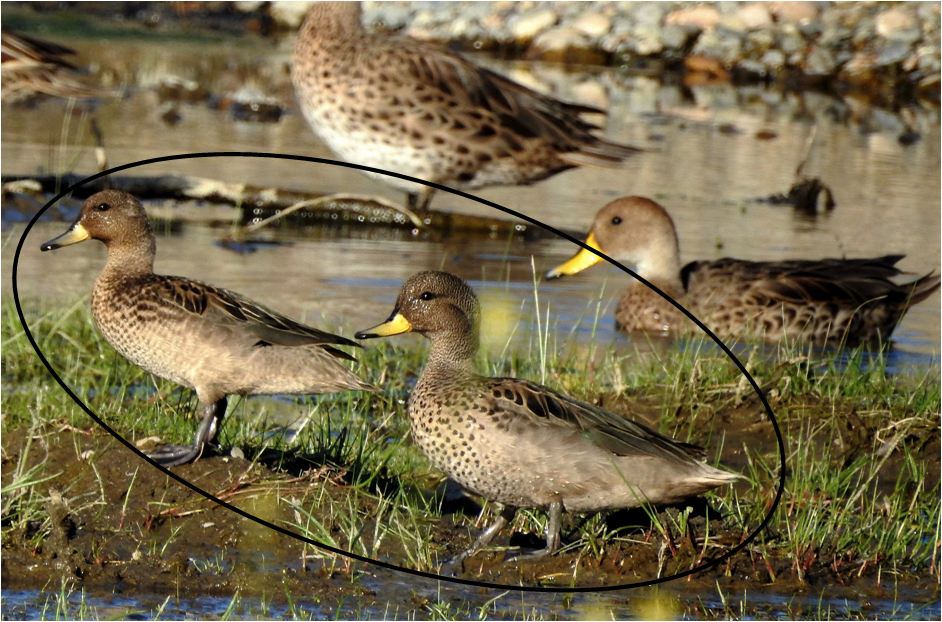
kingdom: Animalia
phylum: Chordata
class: Aves
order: Anseriformes
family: Anatidae
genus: Anas
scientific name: Anas flavirostris
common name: Yellow-billed teal
